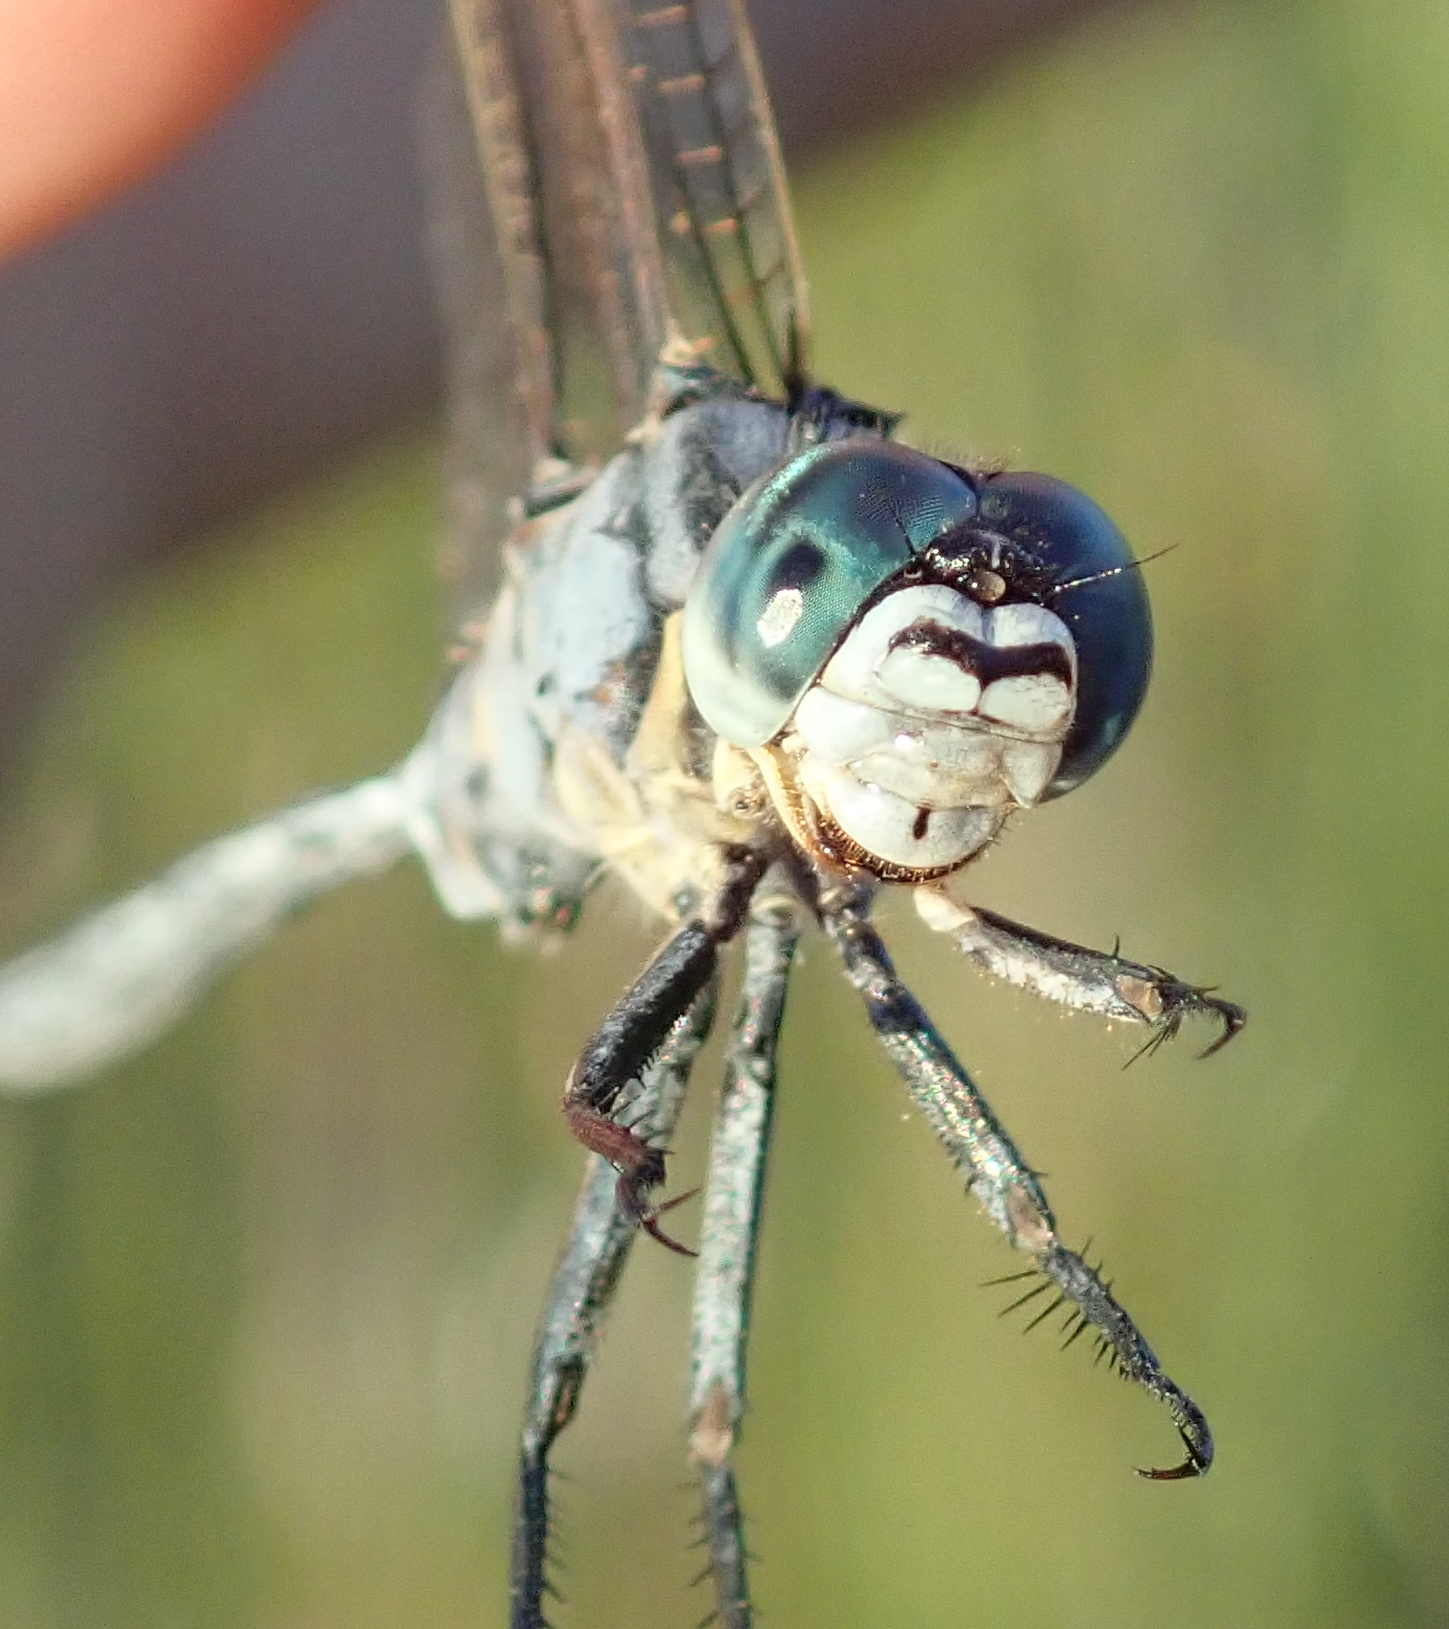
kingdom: Animalia
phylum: Arthropoda
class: Insecta
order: Odonata
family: Libellulidae
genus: Orthetrum
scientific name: Orthetrum icteromelas
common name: Spectacled skimmer
